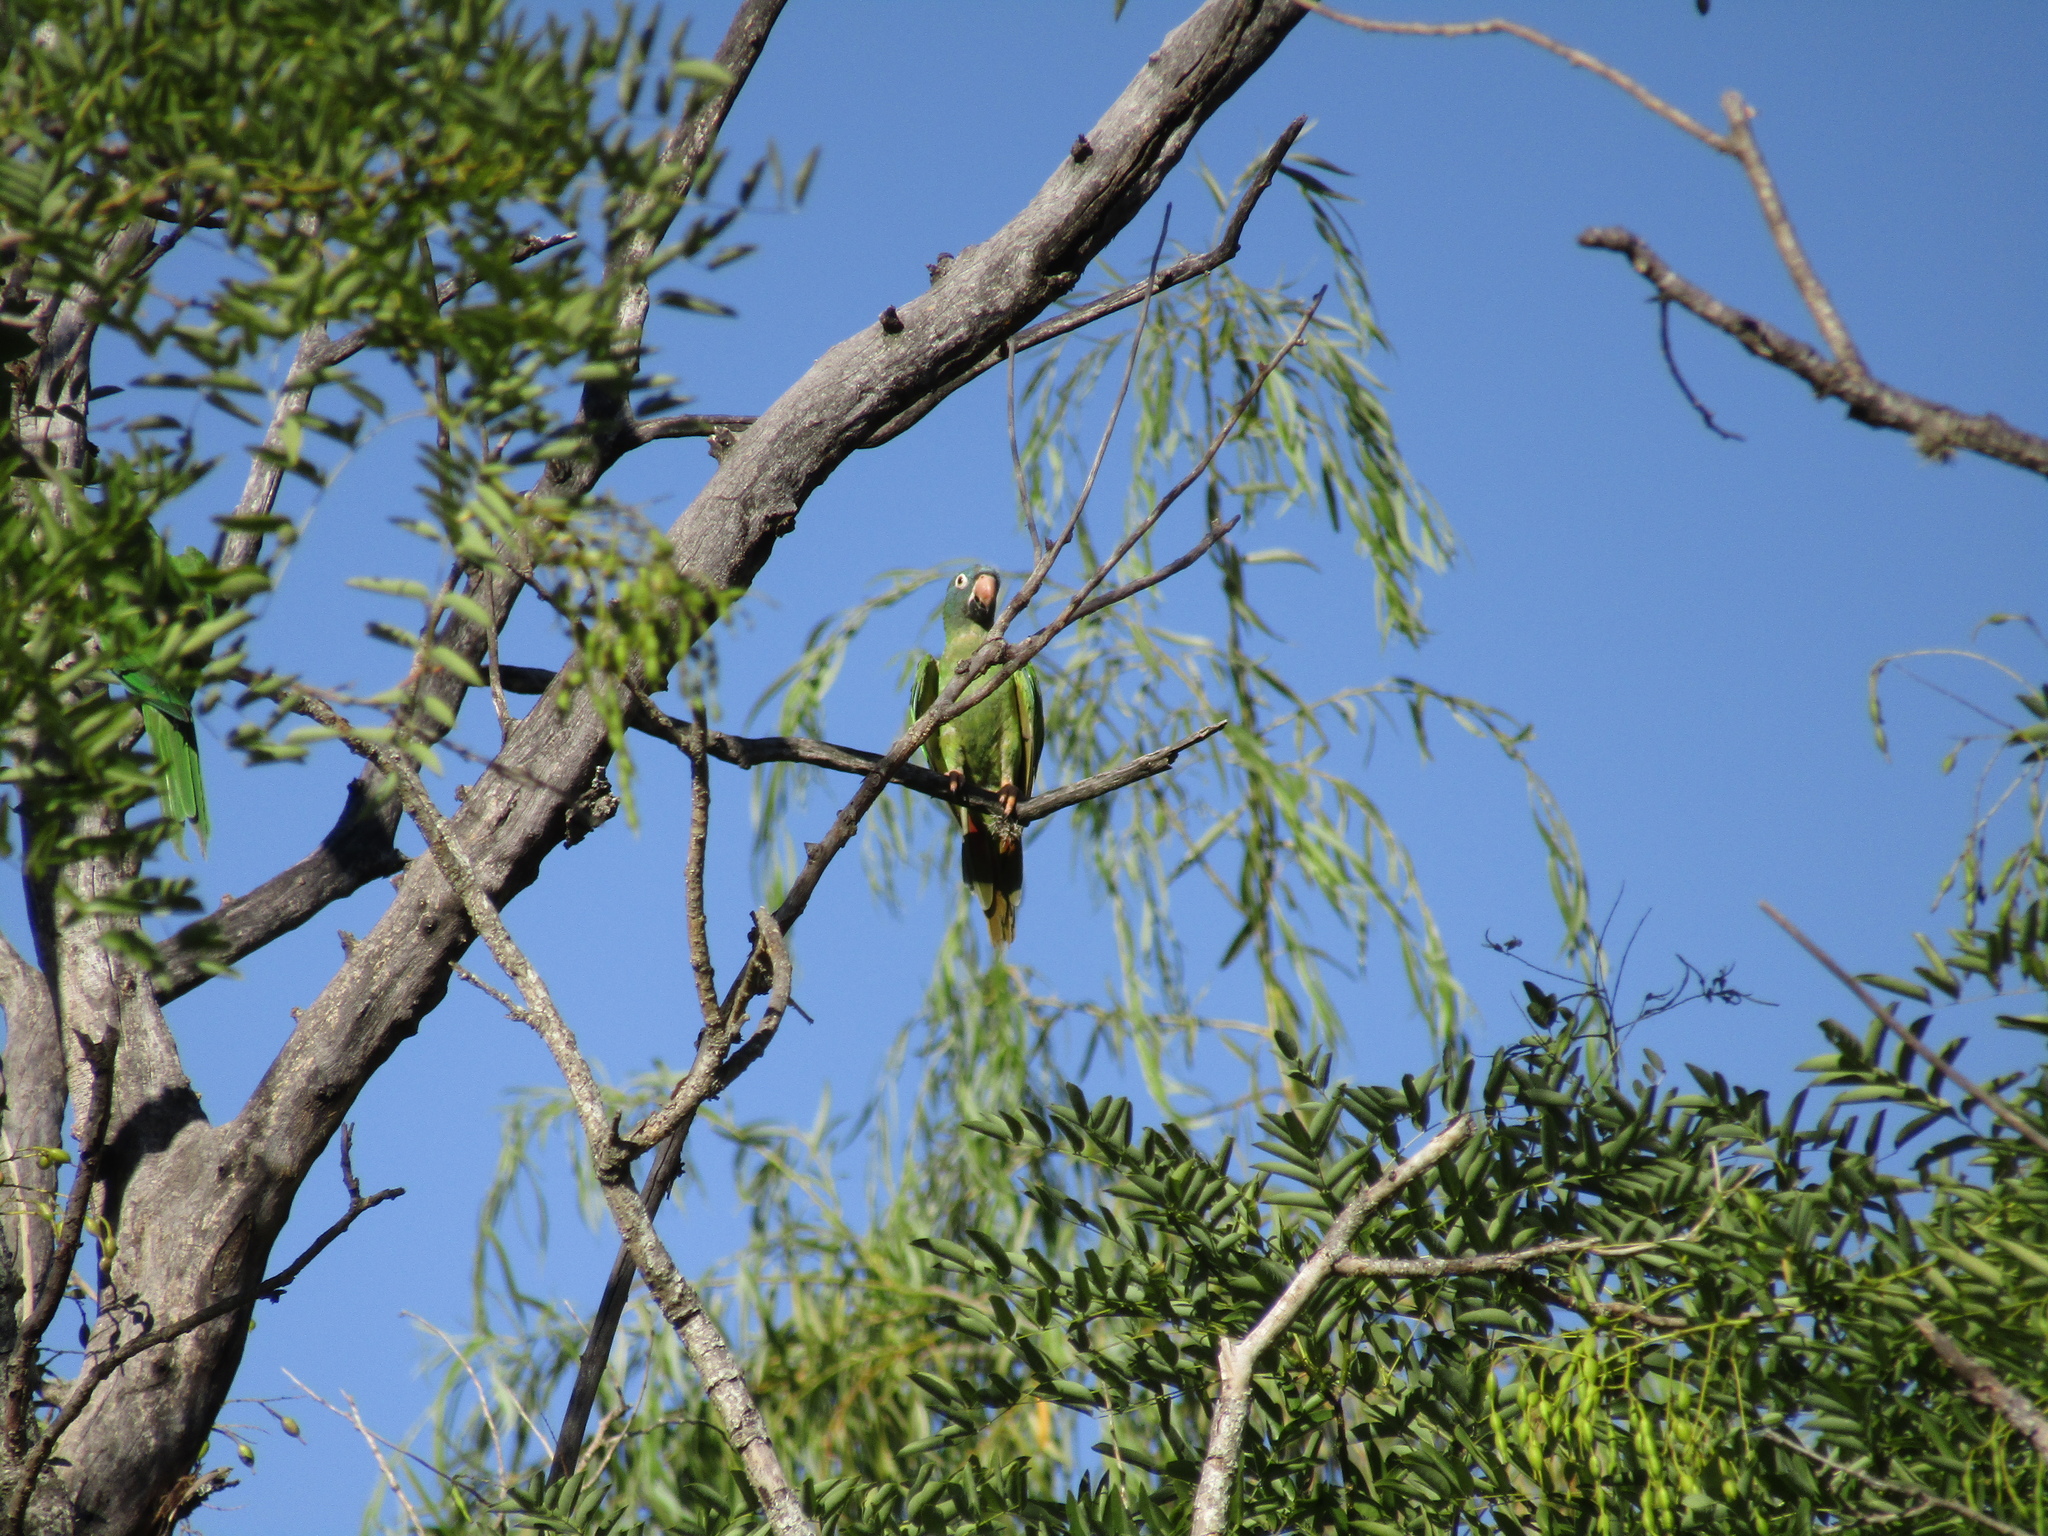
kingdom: Animalia
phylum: Chordata
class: Aves
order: Psittaciformes
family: Psittacidae
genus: Aratinga
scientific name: Aratinga acuticaudata
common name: Blue-crowned parakeet
